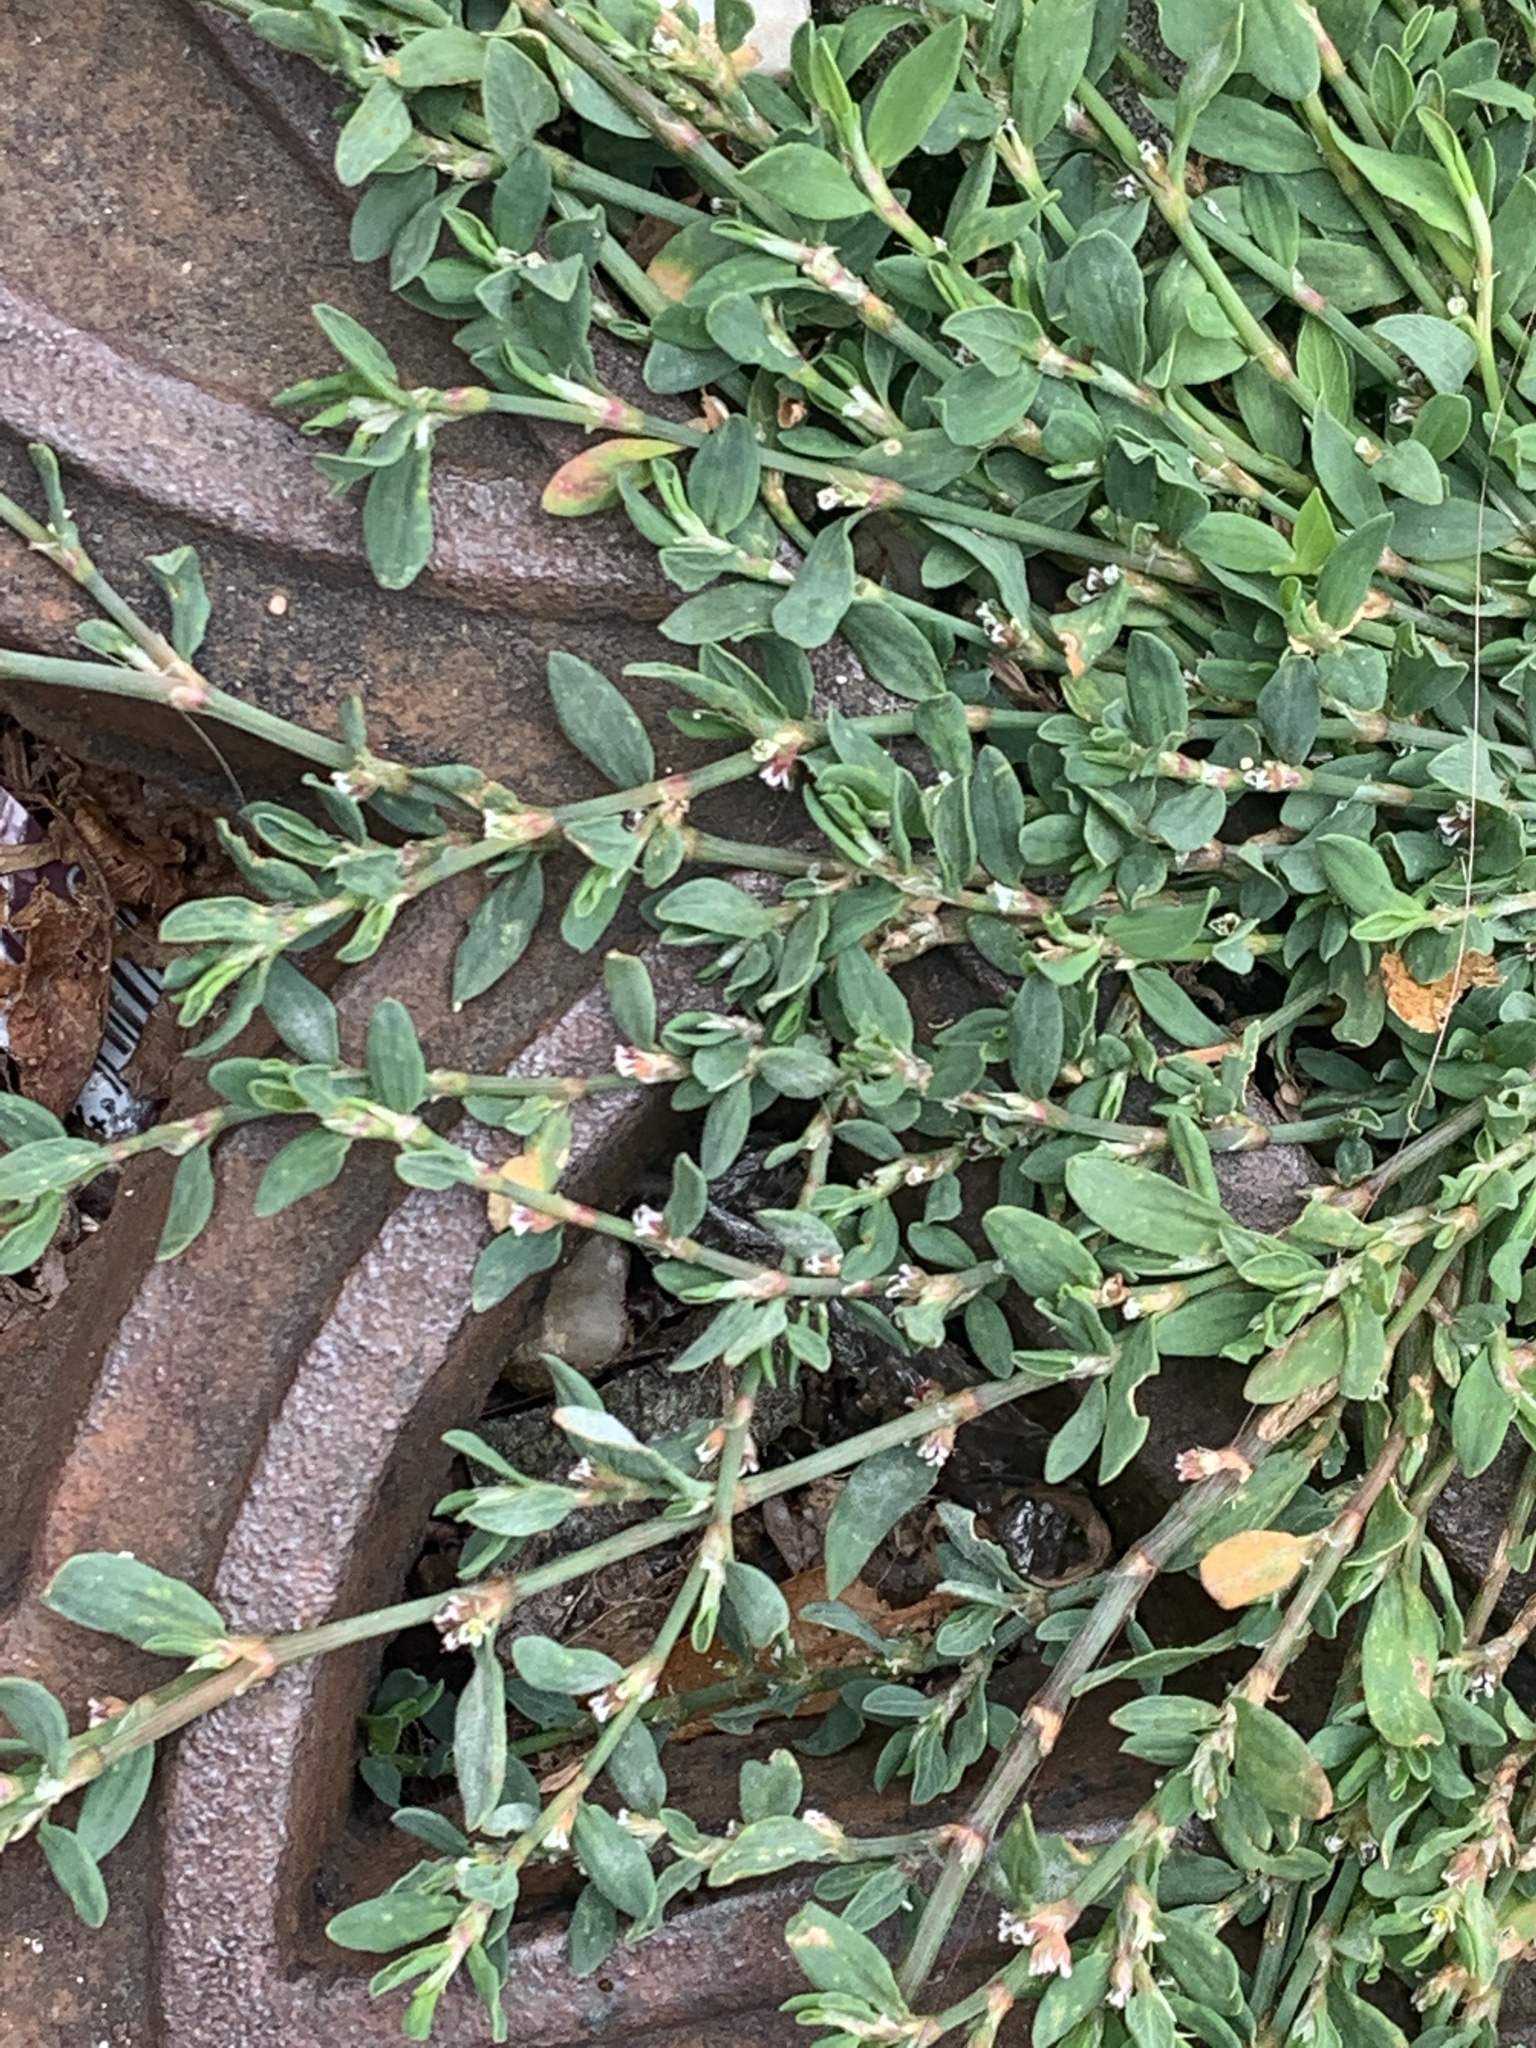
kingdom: Plantae
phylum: Tracheophyta
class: Magnoliopsida
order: Caryophyllales
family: Polygonaceae
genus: Polygonum
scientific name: Polygonum aviculare
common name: Prostrate knotweed
